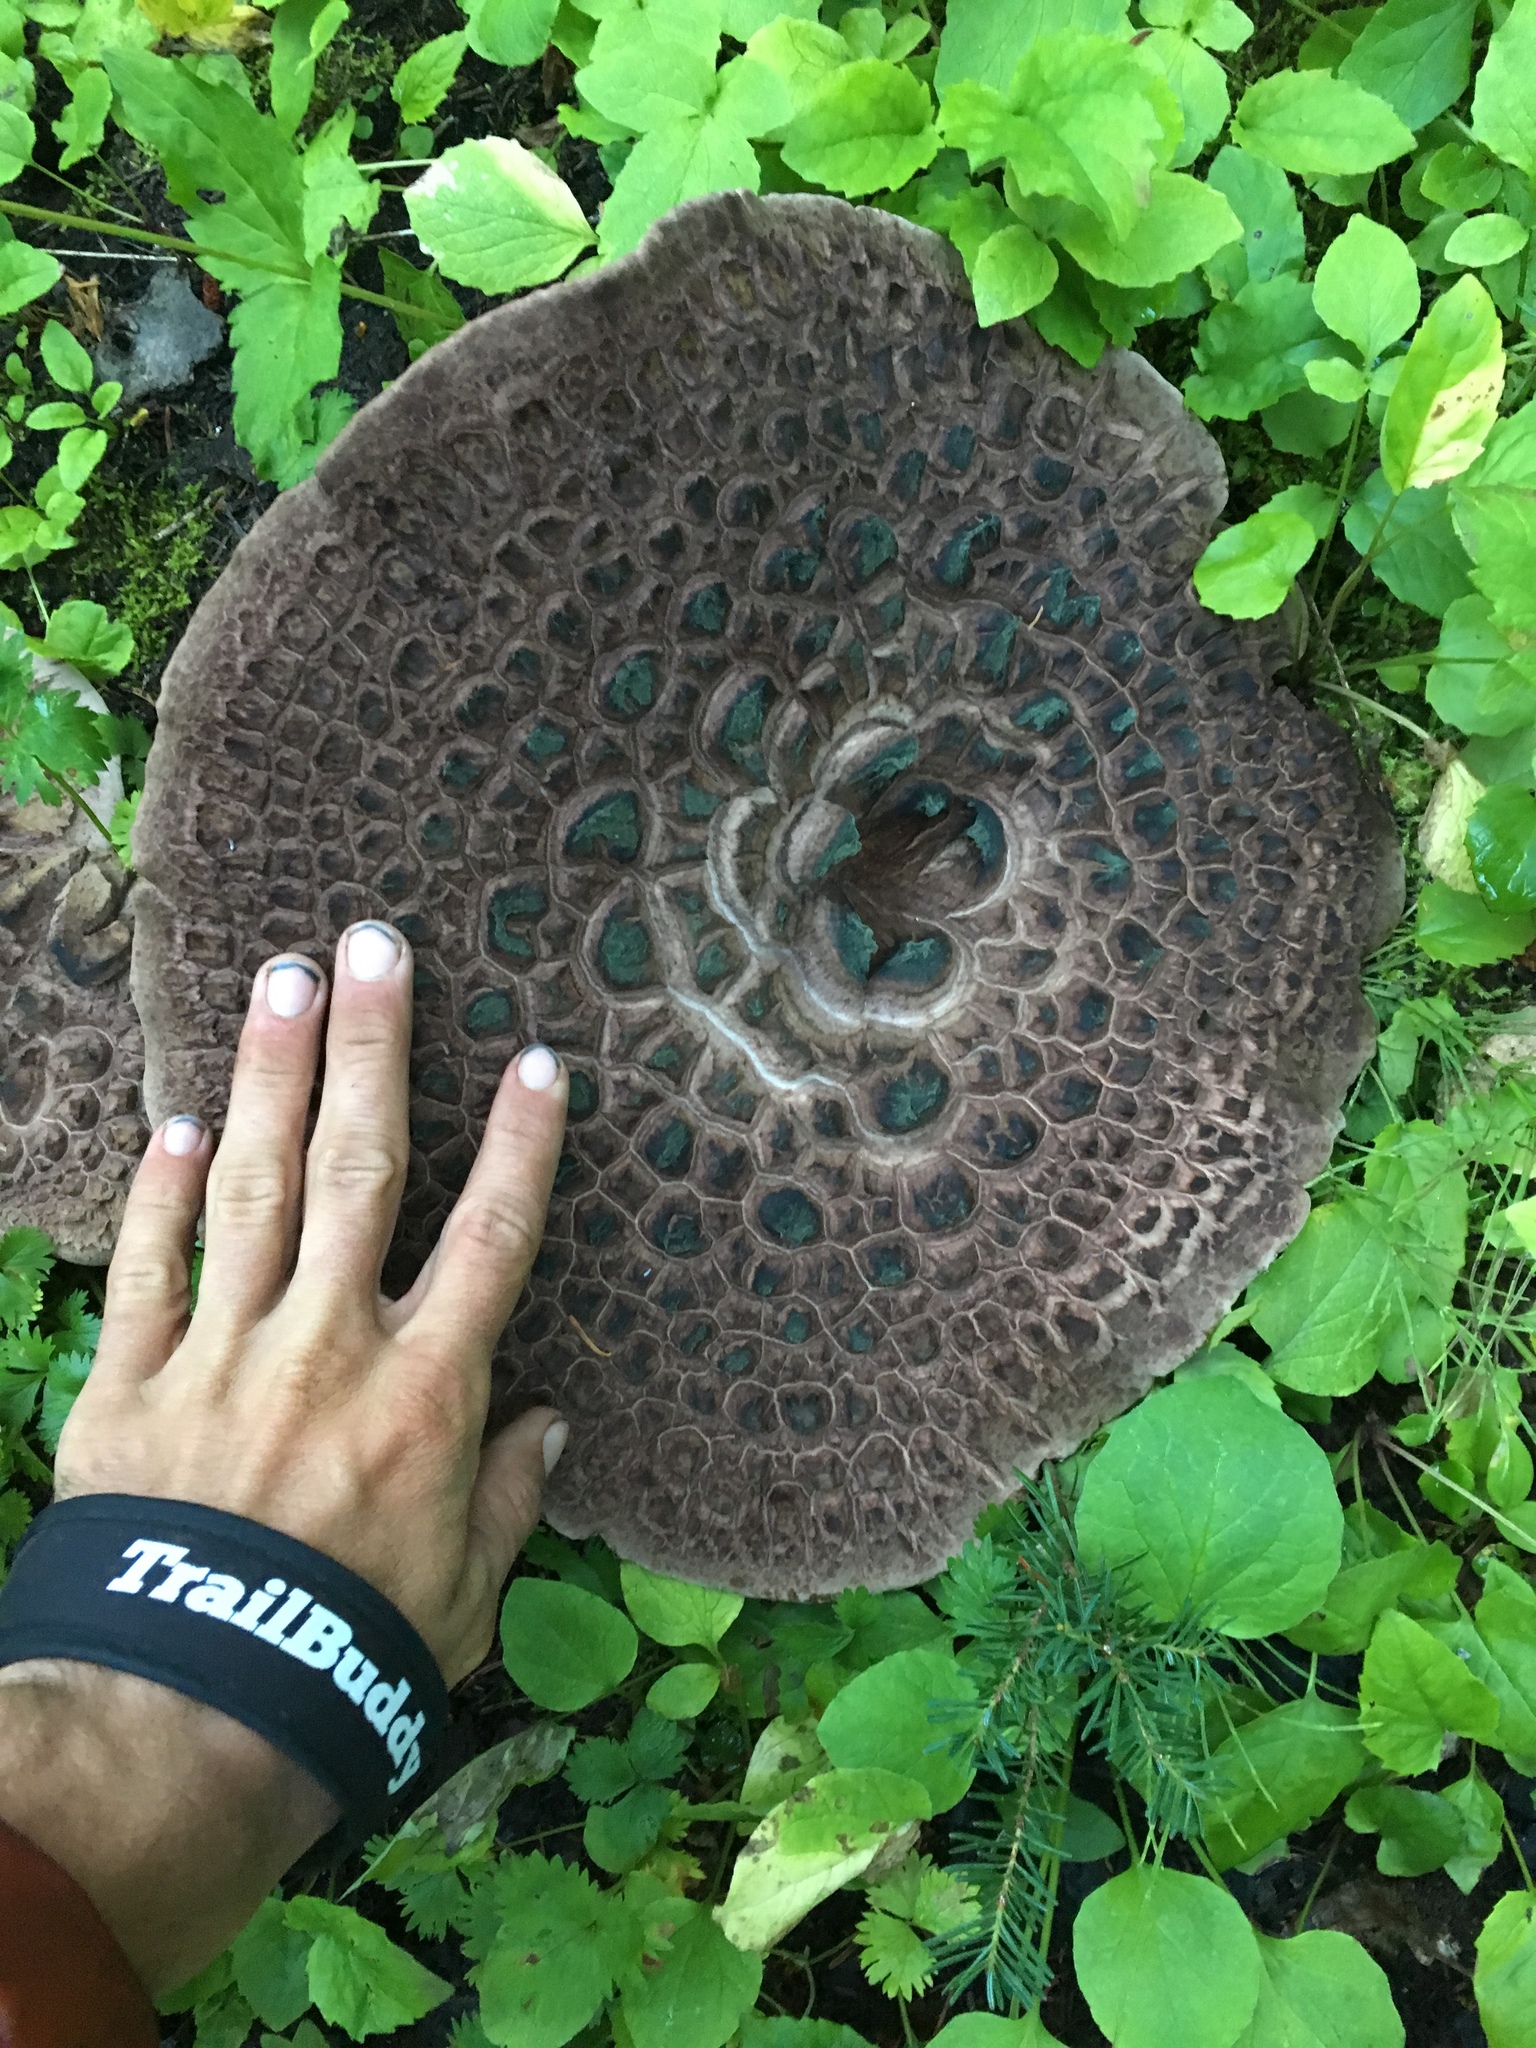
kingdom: Fungi
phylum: Basidiomycota
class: Agaricomycetes
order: Thelephorales
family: Bankeraceae
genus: Sarcodon
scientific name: Sarcodon imbricatus
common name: Shingled hedgehog
